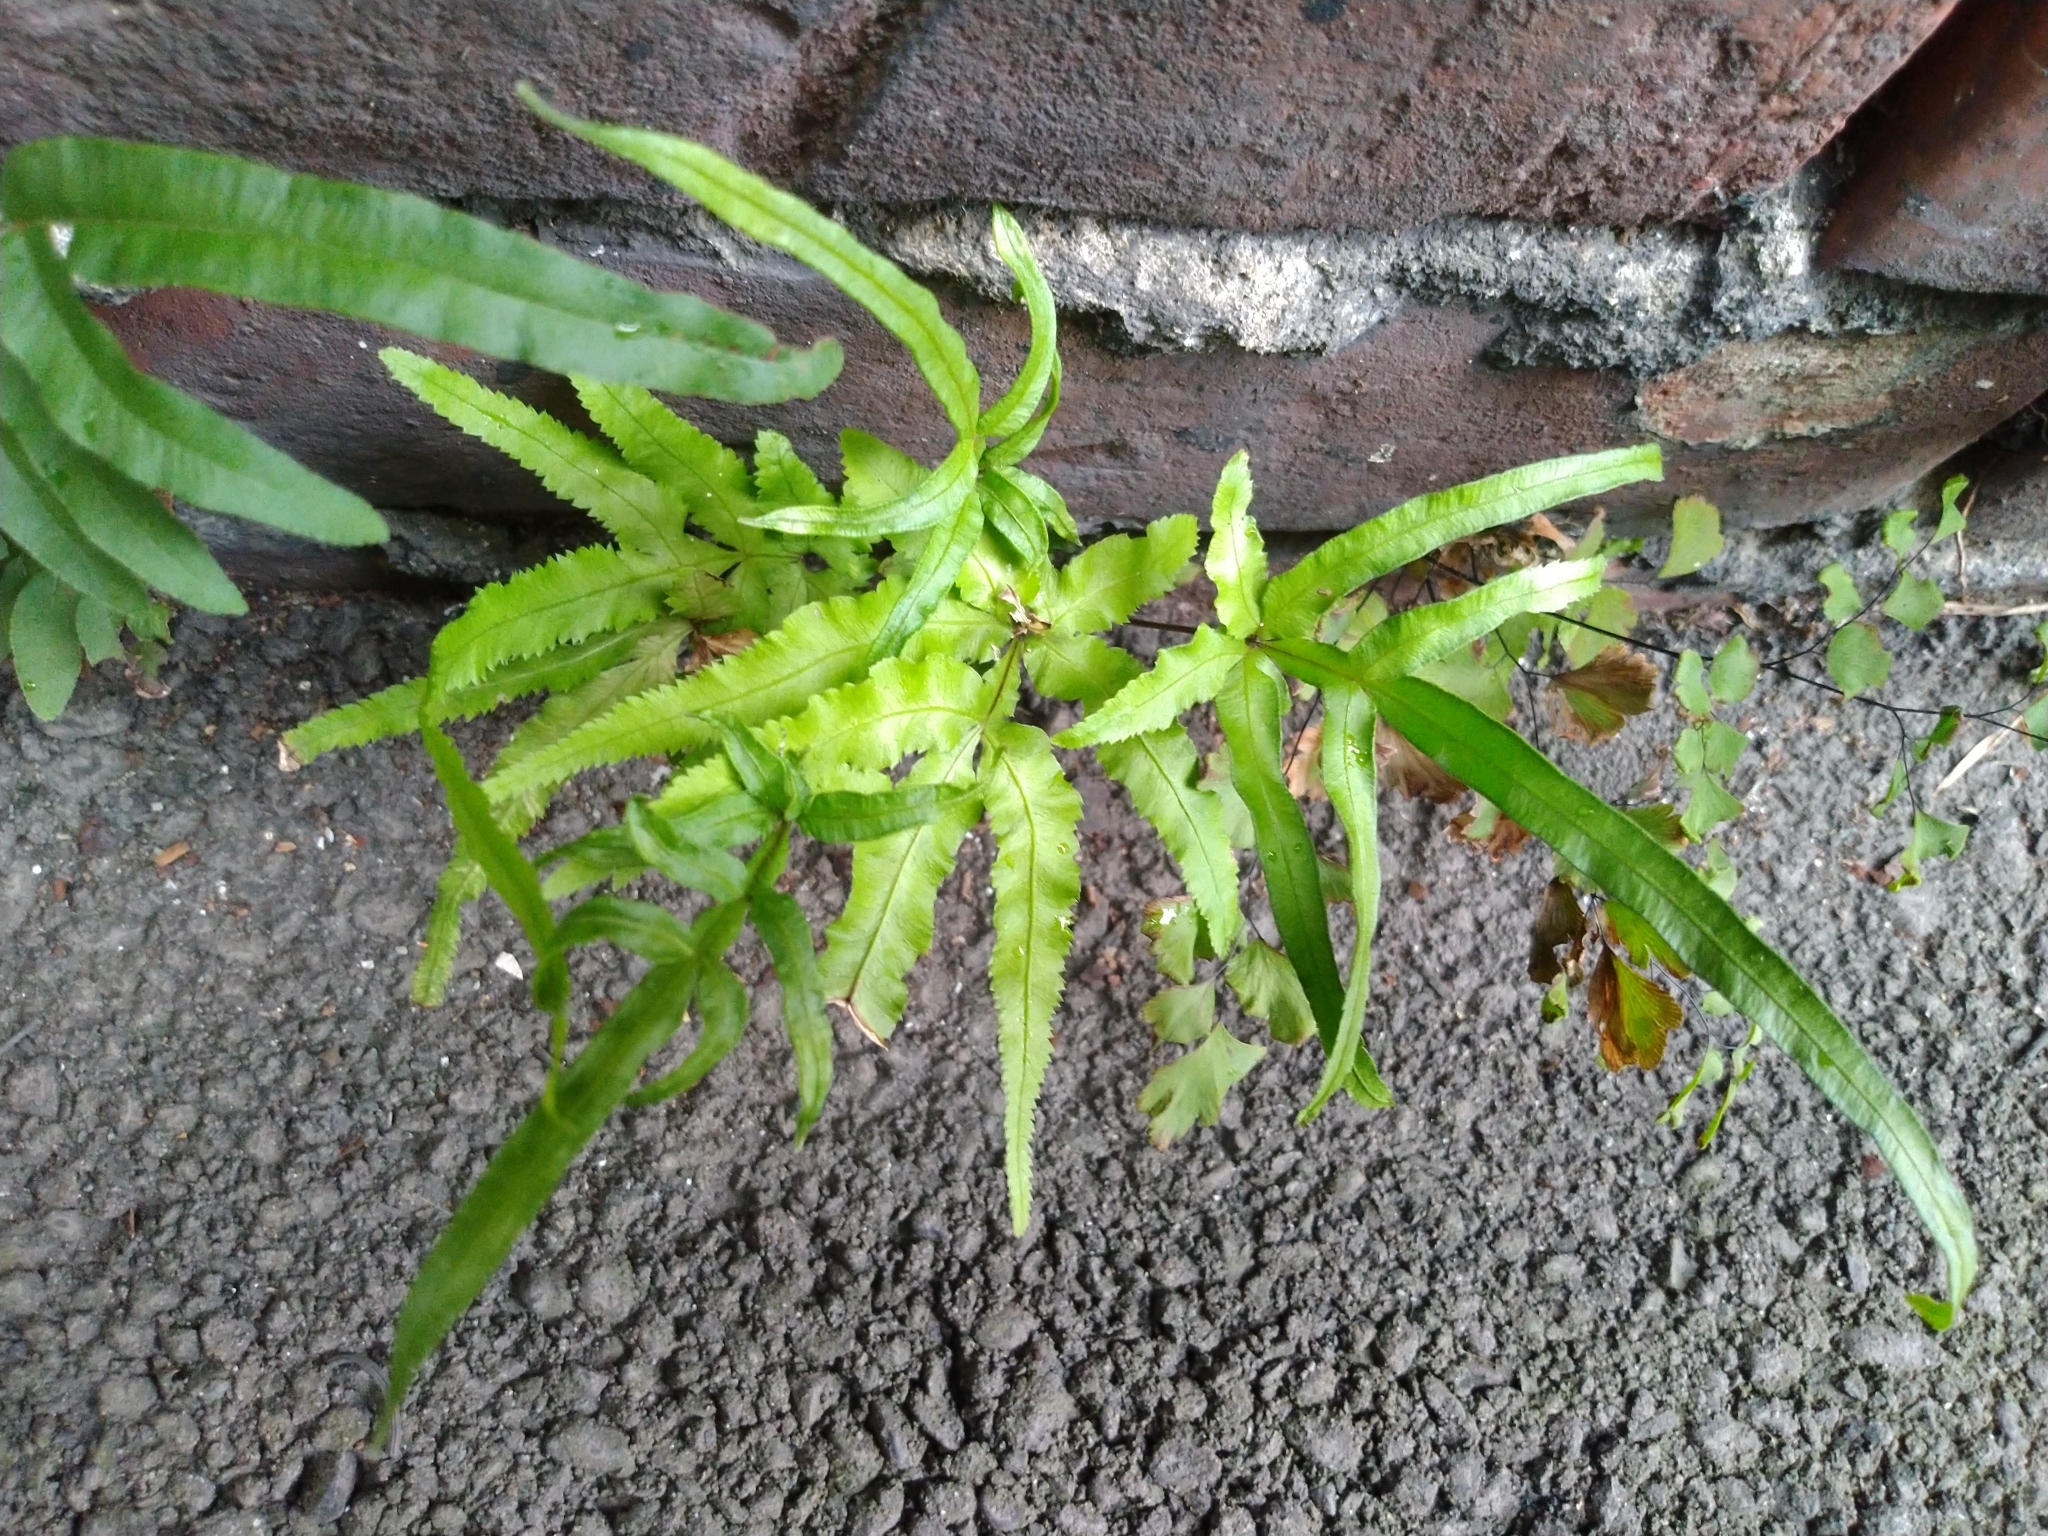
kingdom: Plantae
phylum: Tracheophyta
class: Polypodiopsida
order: Polypodiales
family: Pteridaceae
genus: Pteris
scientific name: Pteris multifida
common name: Spider brake
